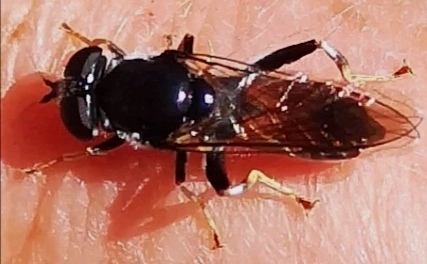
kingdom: Animalia
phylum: Arthropoda
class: Insecta
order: Diptera
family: Syrphidae
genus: Xylota
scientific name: Xylota ignava
